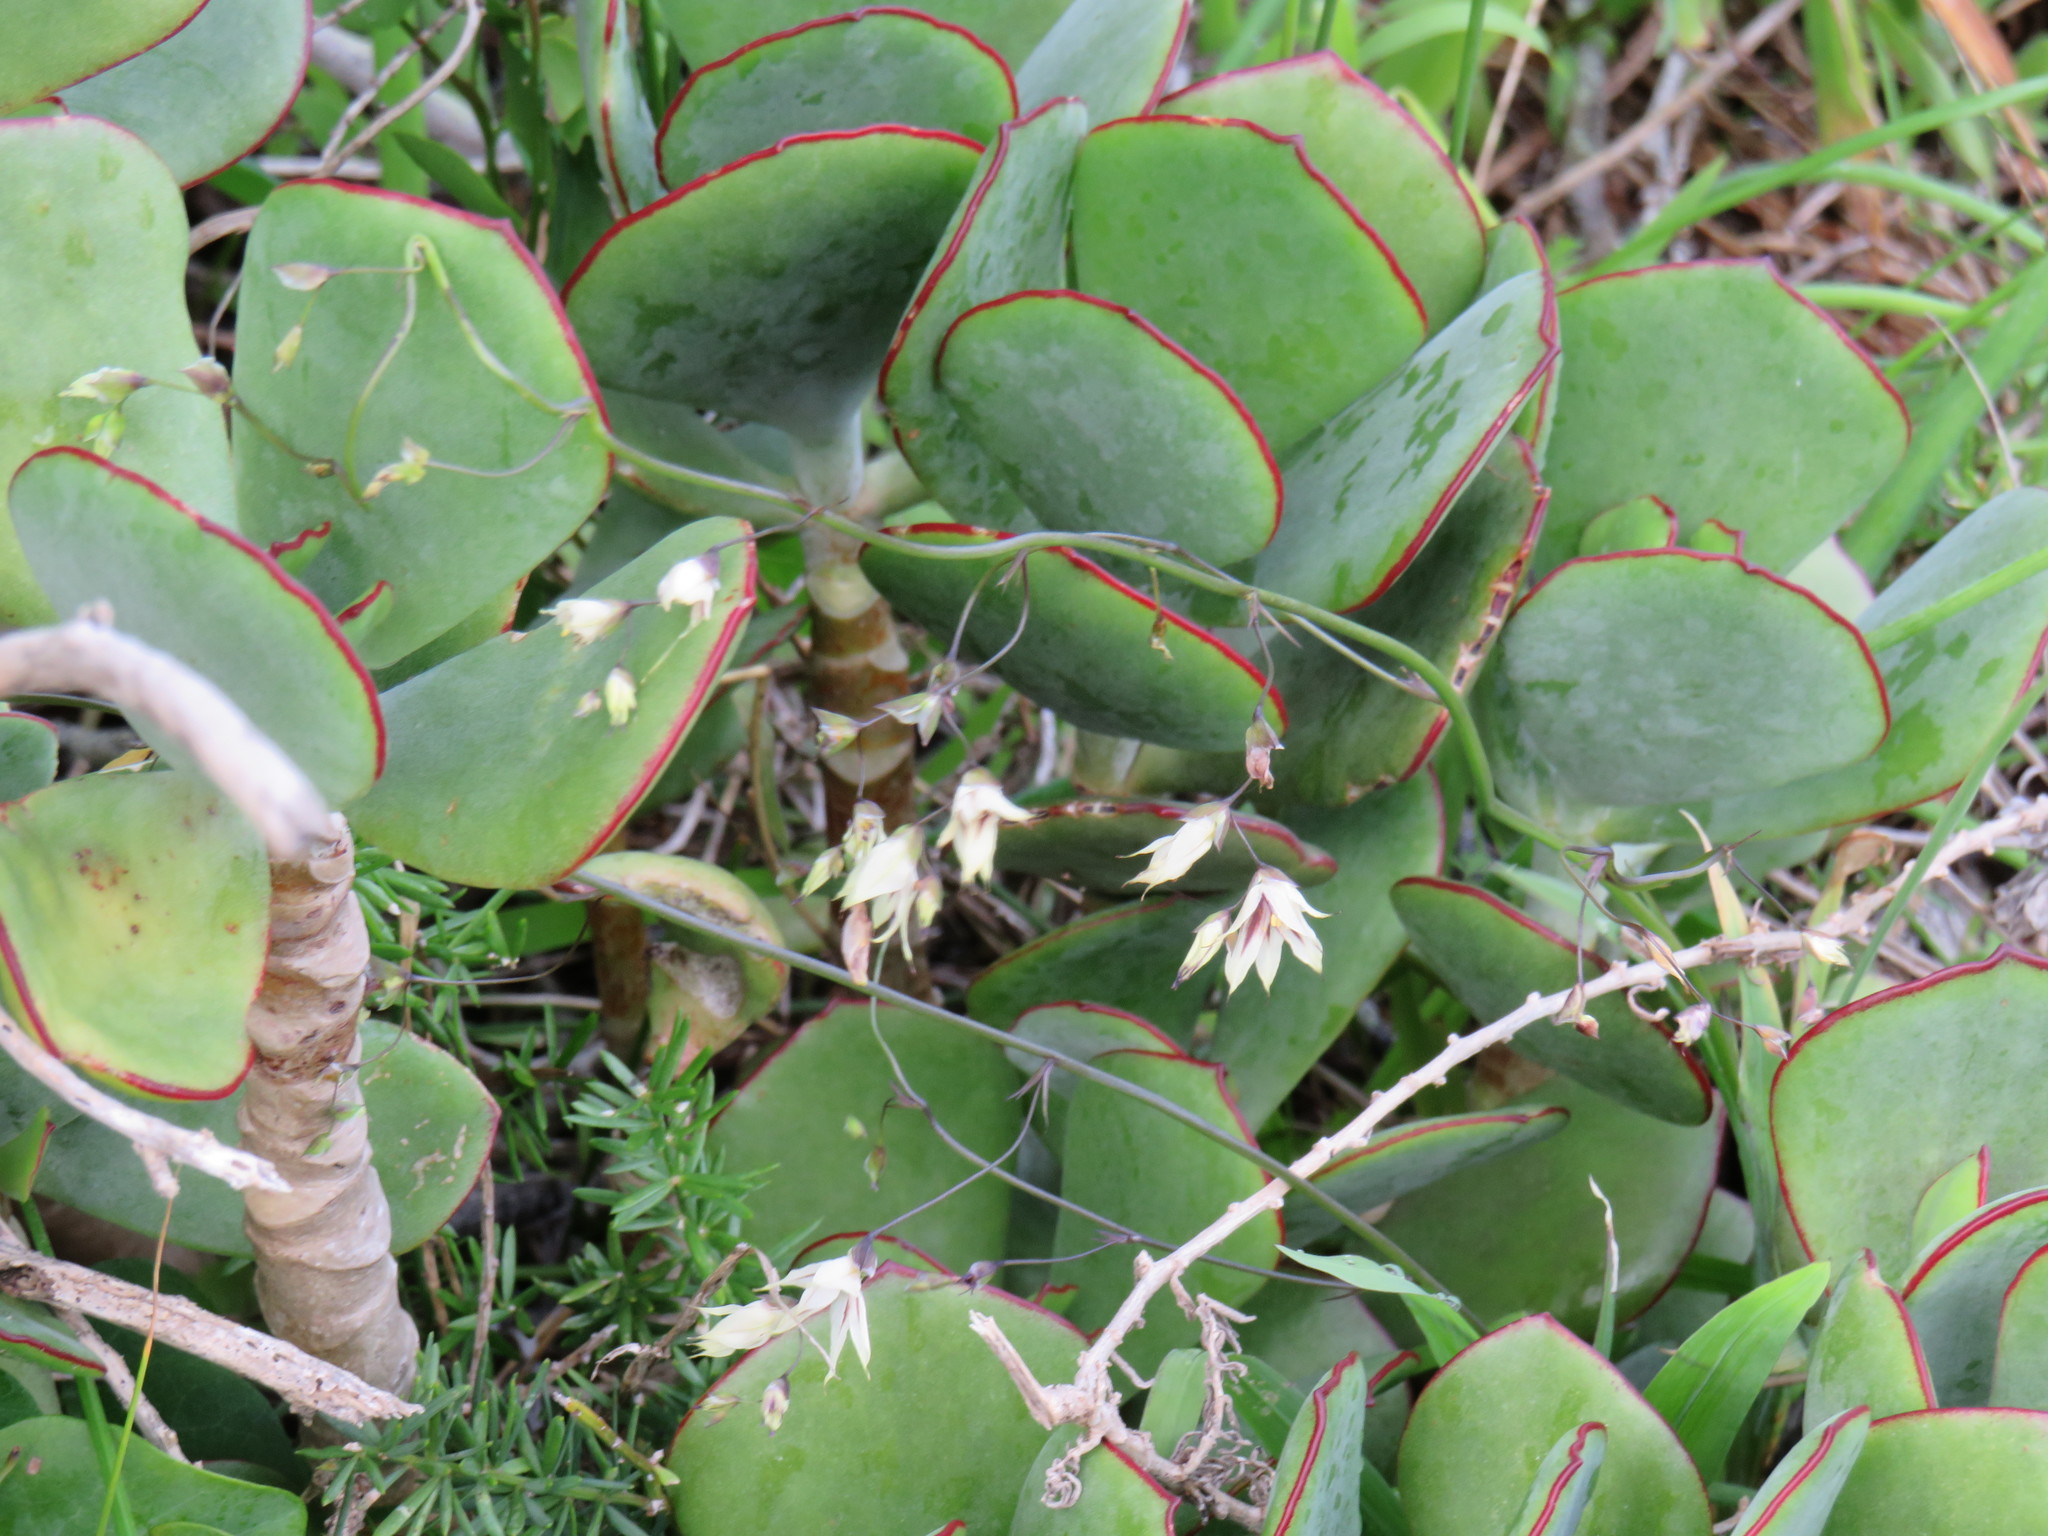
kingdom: Plantae
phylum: Tracheophyta
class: Magnoliopsida
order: Saxifragales
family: Crassulaceae
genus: Cotyledon
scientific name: Cotyledon orbiculata
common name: Pig's ear
